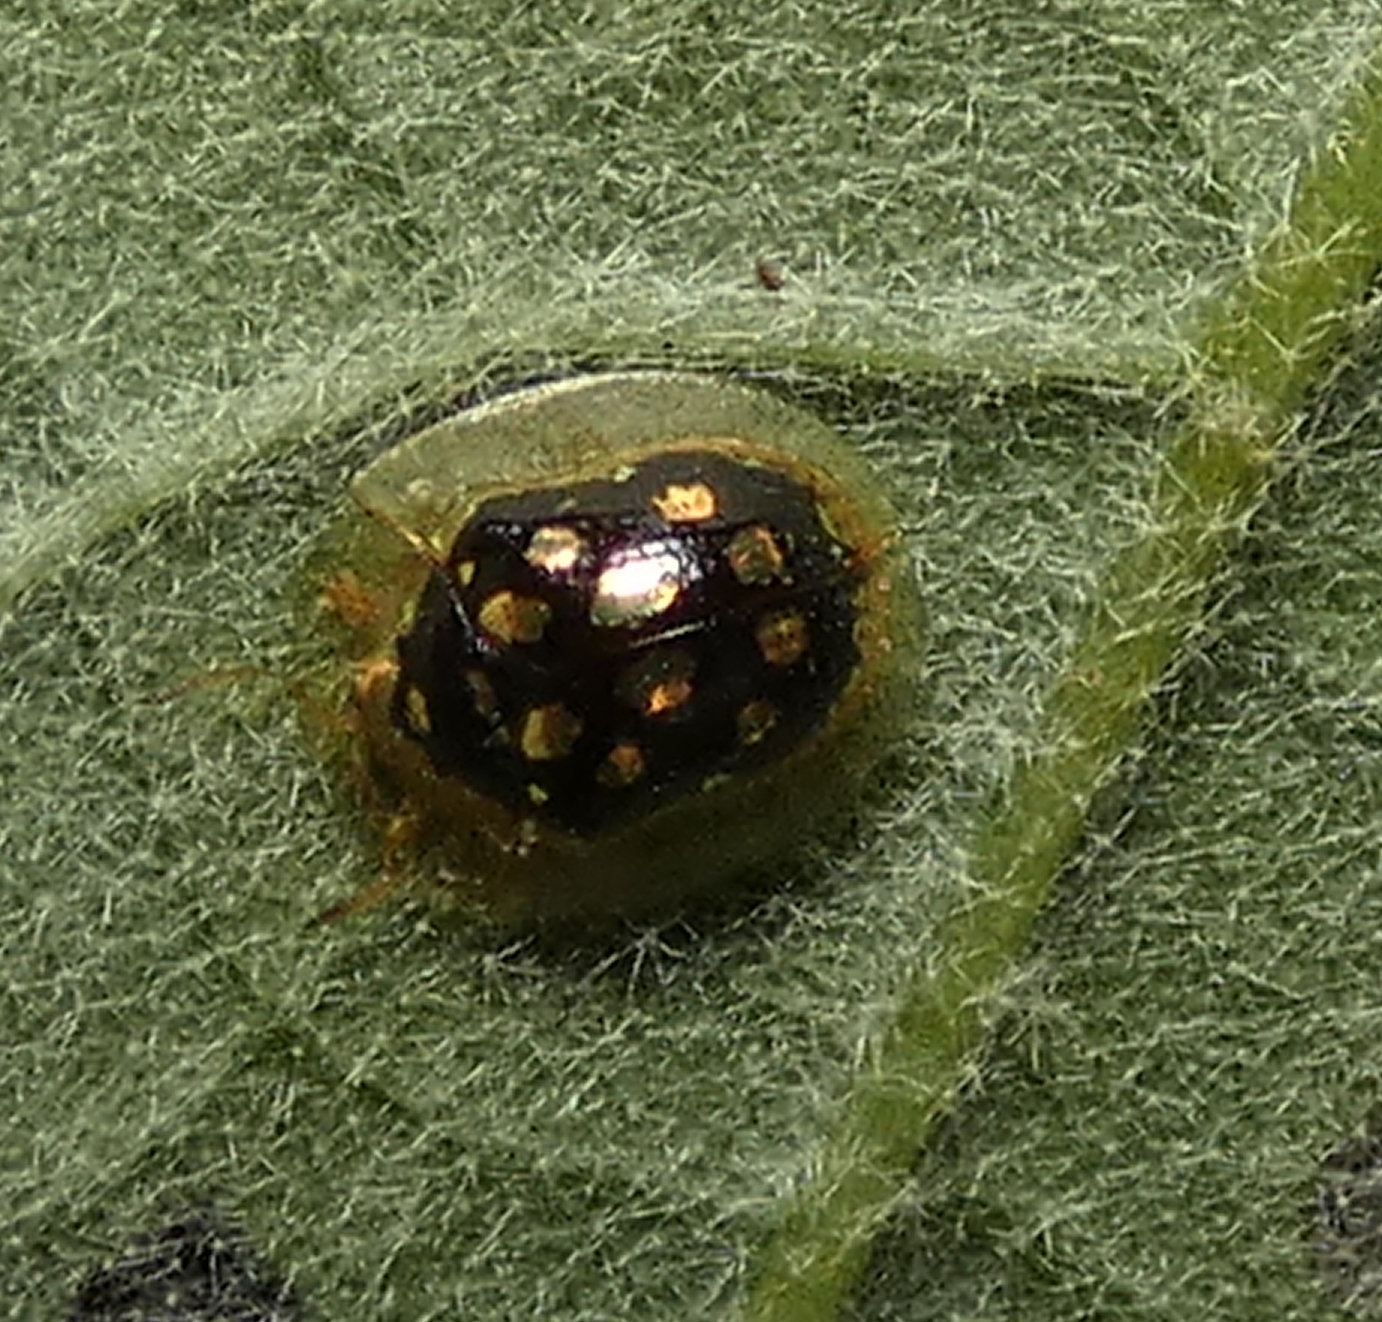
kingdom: Animalia
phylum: Arthropoda
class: Insecta
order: Coleoptera
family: Chrysomelidae
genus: Plagiometriona
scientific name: Plagiometriona microcera
